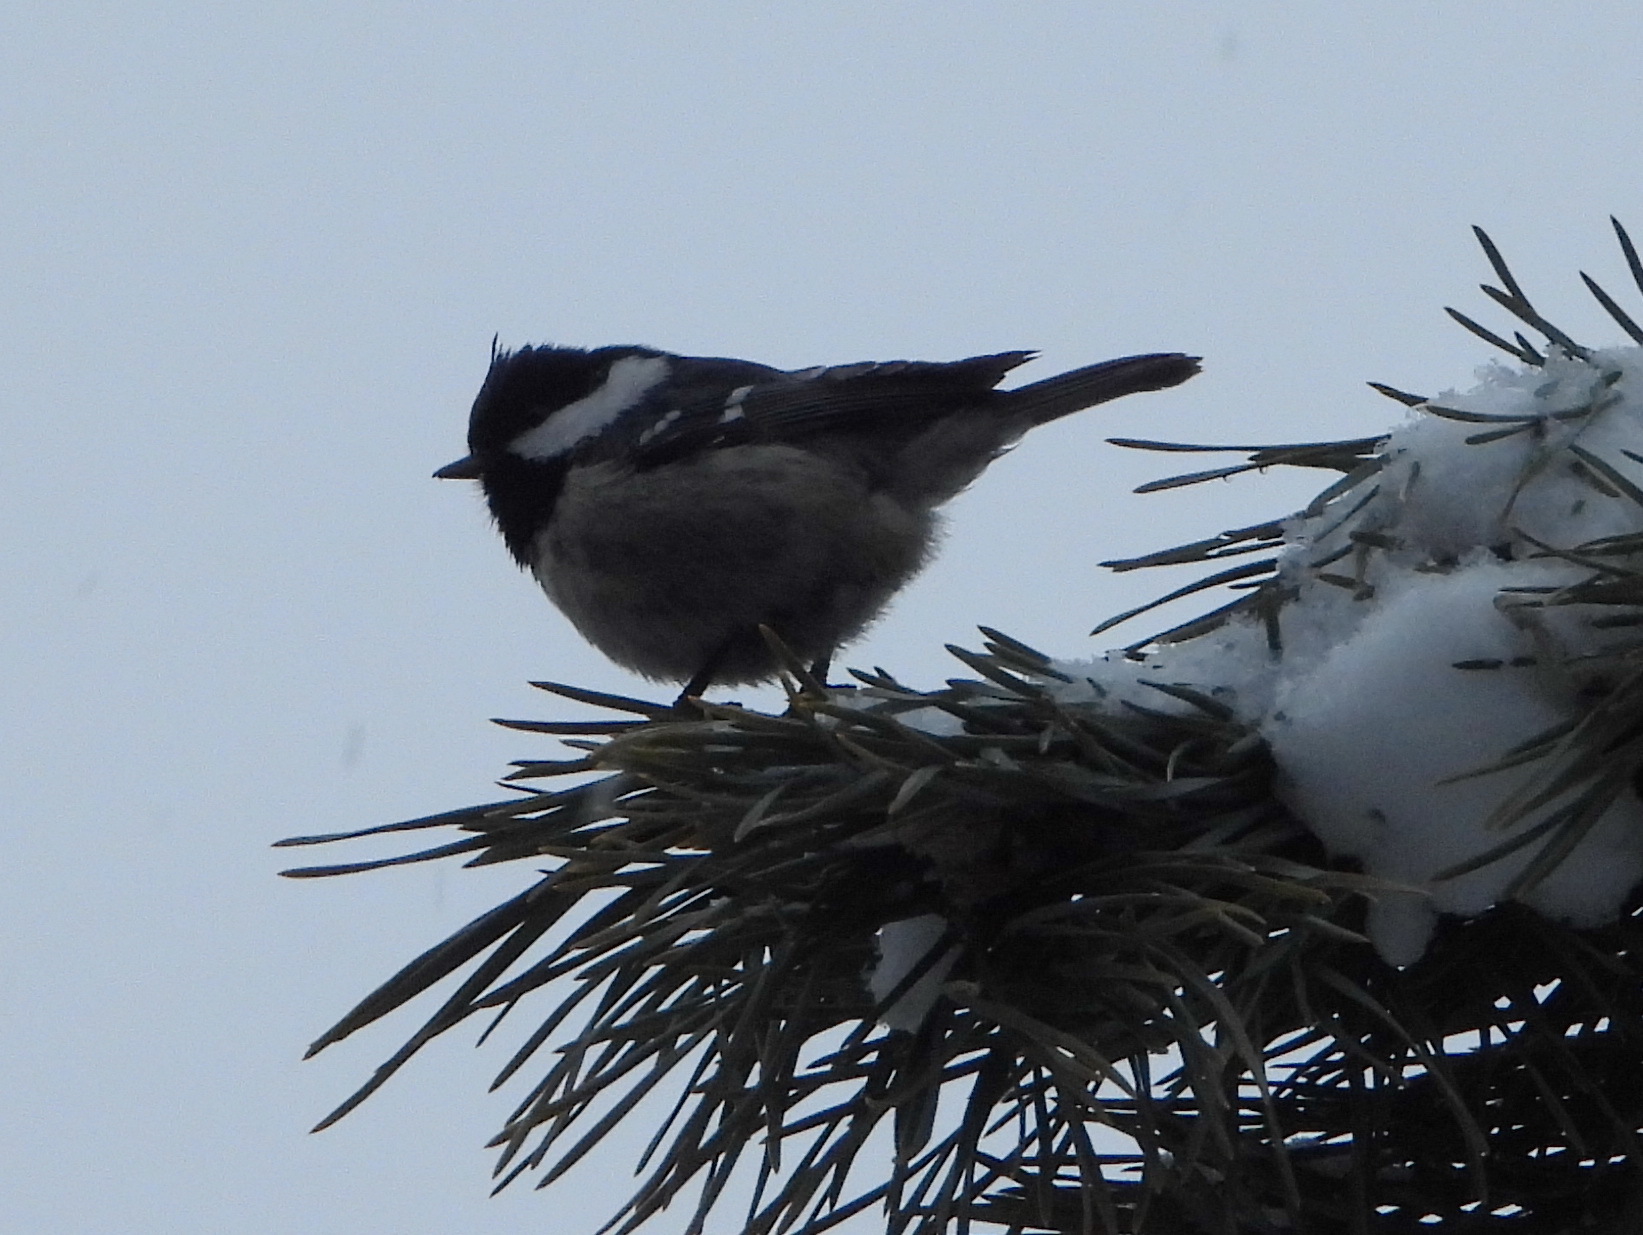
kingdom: Animalia
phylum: Chordata
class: Aves
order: Passeriformes
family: Paridae
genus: Periparus
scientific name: Periparus ater
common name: Coal tit
